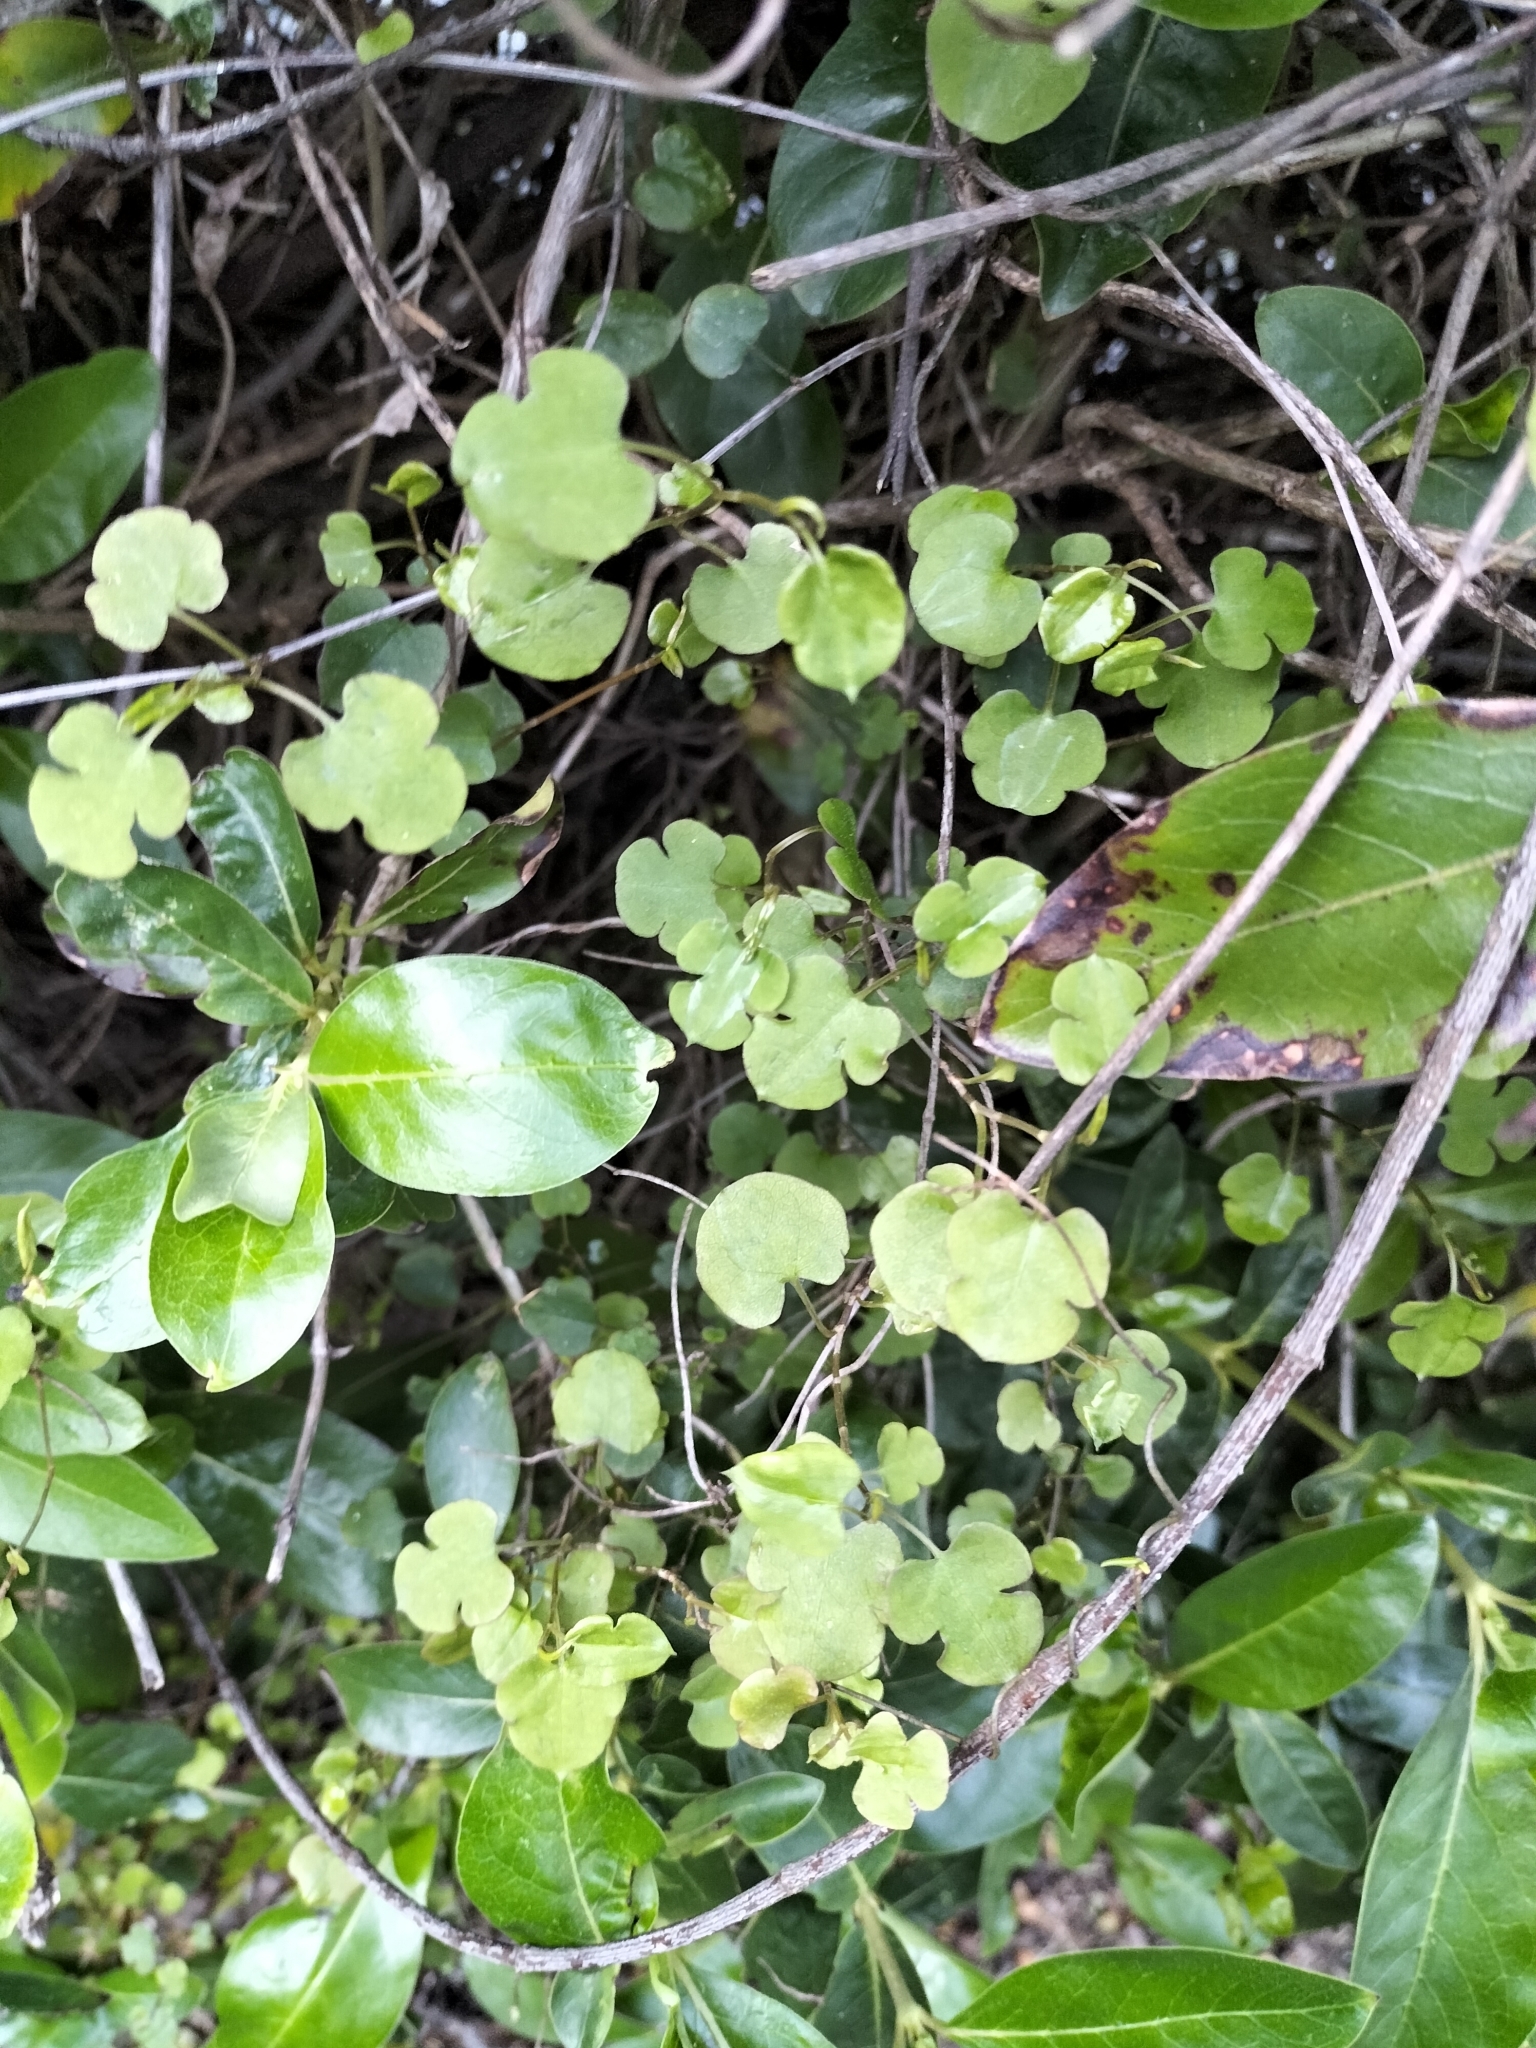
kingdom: Plantae
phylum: Tracheophyta
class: Magnoliopsida
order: Caryophyllales
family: Polygonaceae
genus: Muehlenbeckia
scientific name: Muehlenbeckia australis
